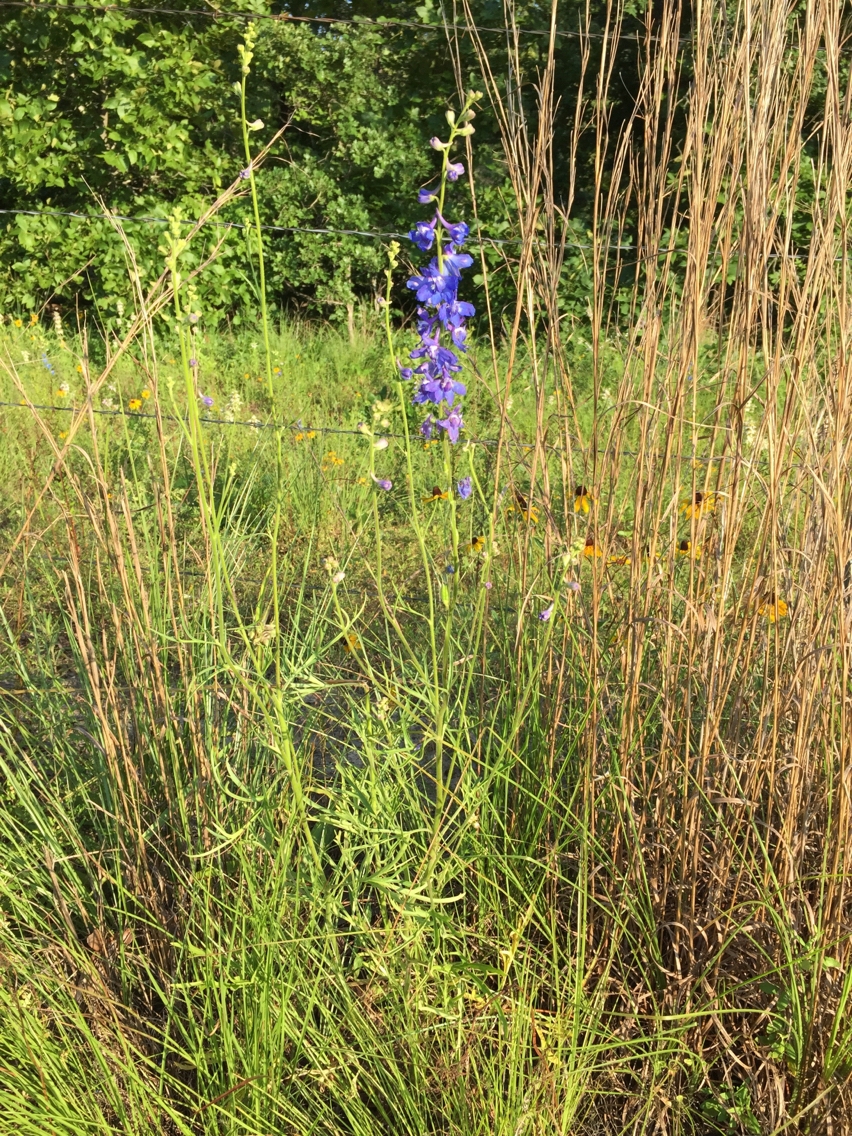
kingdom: Plantae
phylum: Tracheophyta
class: Magnoliopsida
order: Ranunculales
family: Ranunculaceae
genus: Delphinium
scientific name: Delphinium carolinianum
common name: Carolina larkspur
